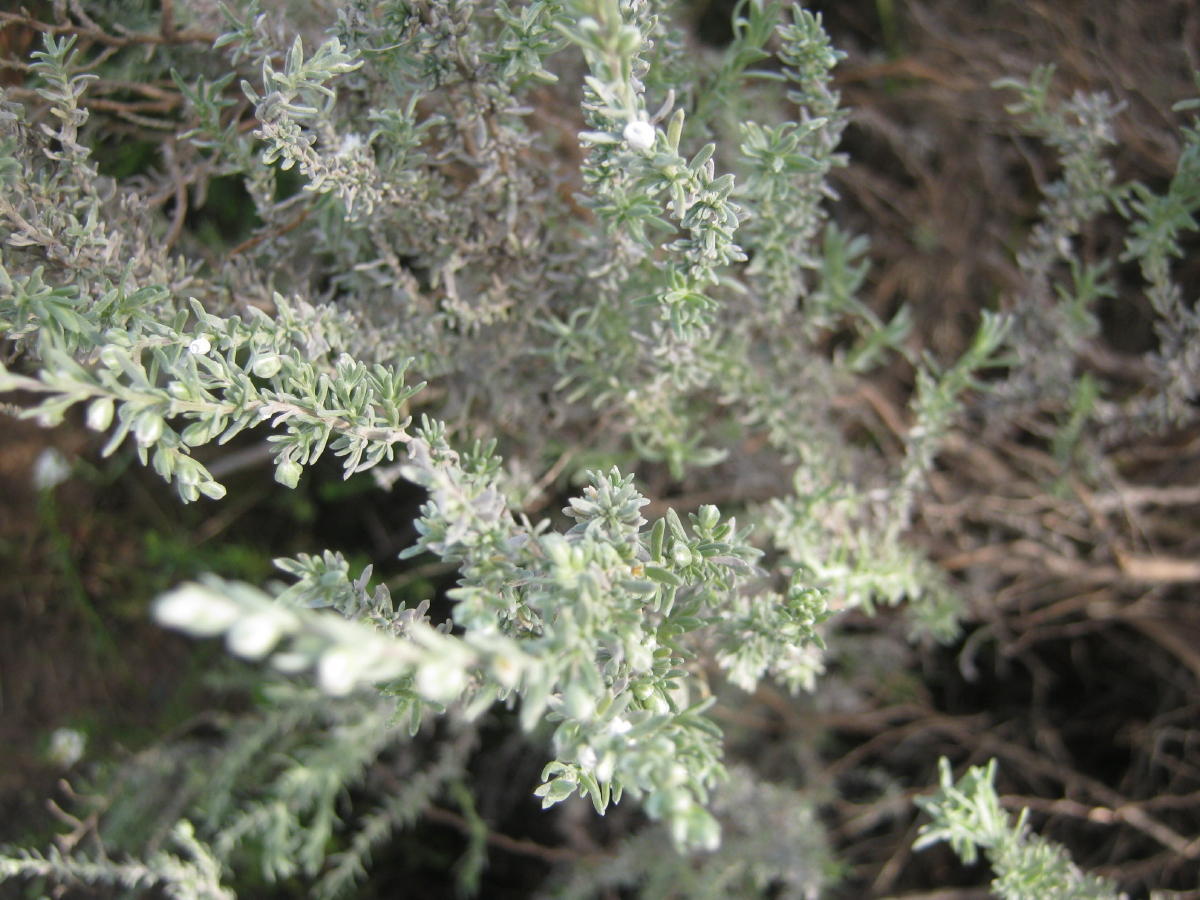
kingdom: Plantae
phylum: Tracheophyta
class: Magnoliopsida
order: Asterales
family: Asteraceae
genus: Eriocephalus
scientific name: Eriocephalus racemosus
